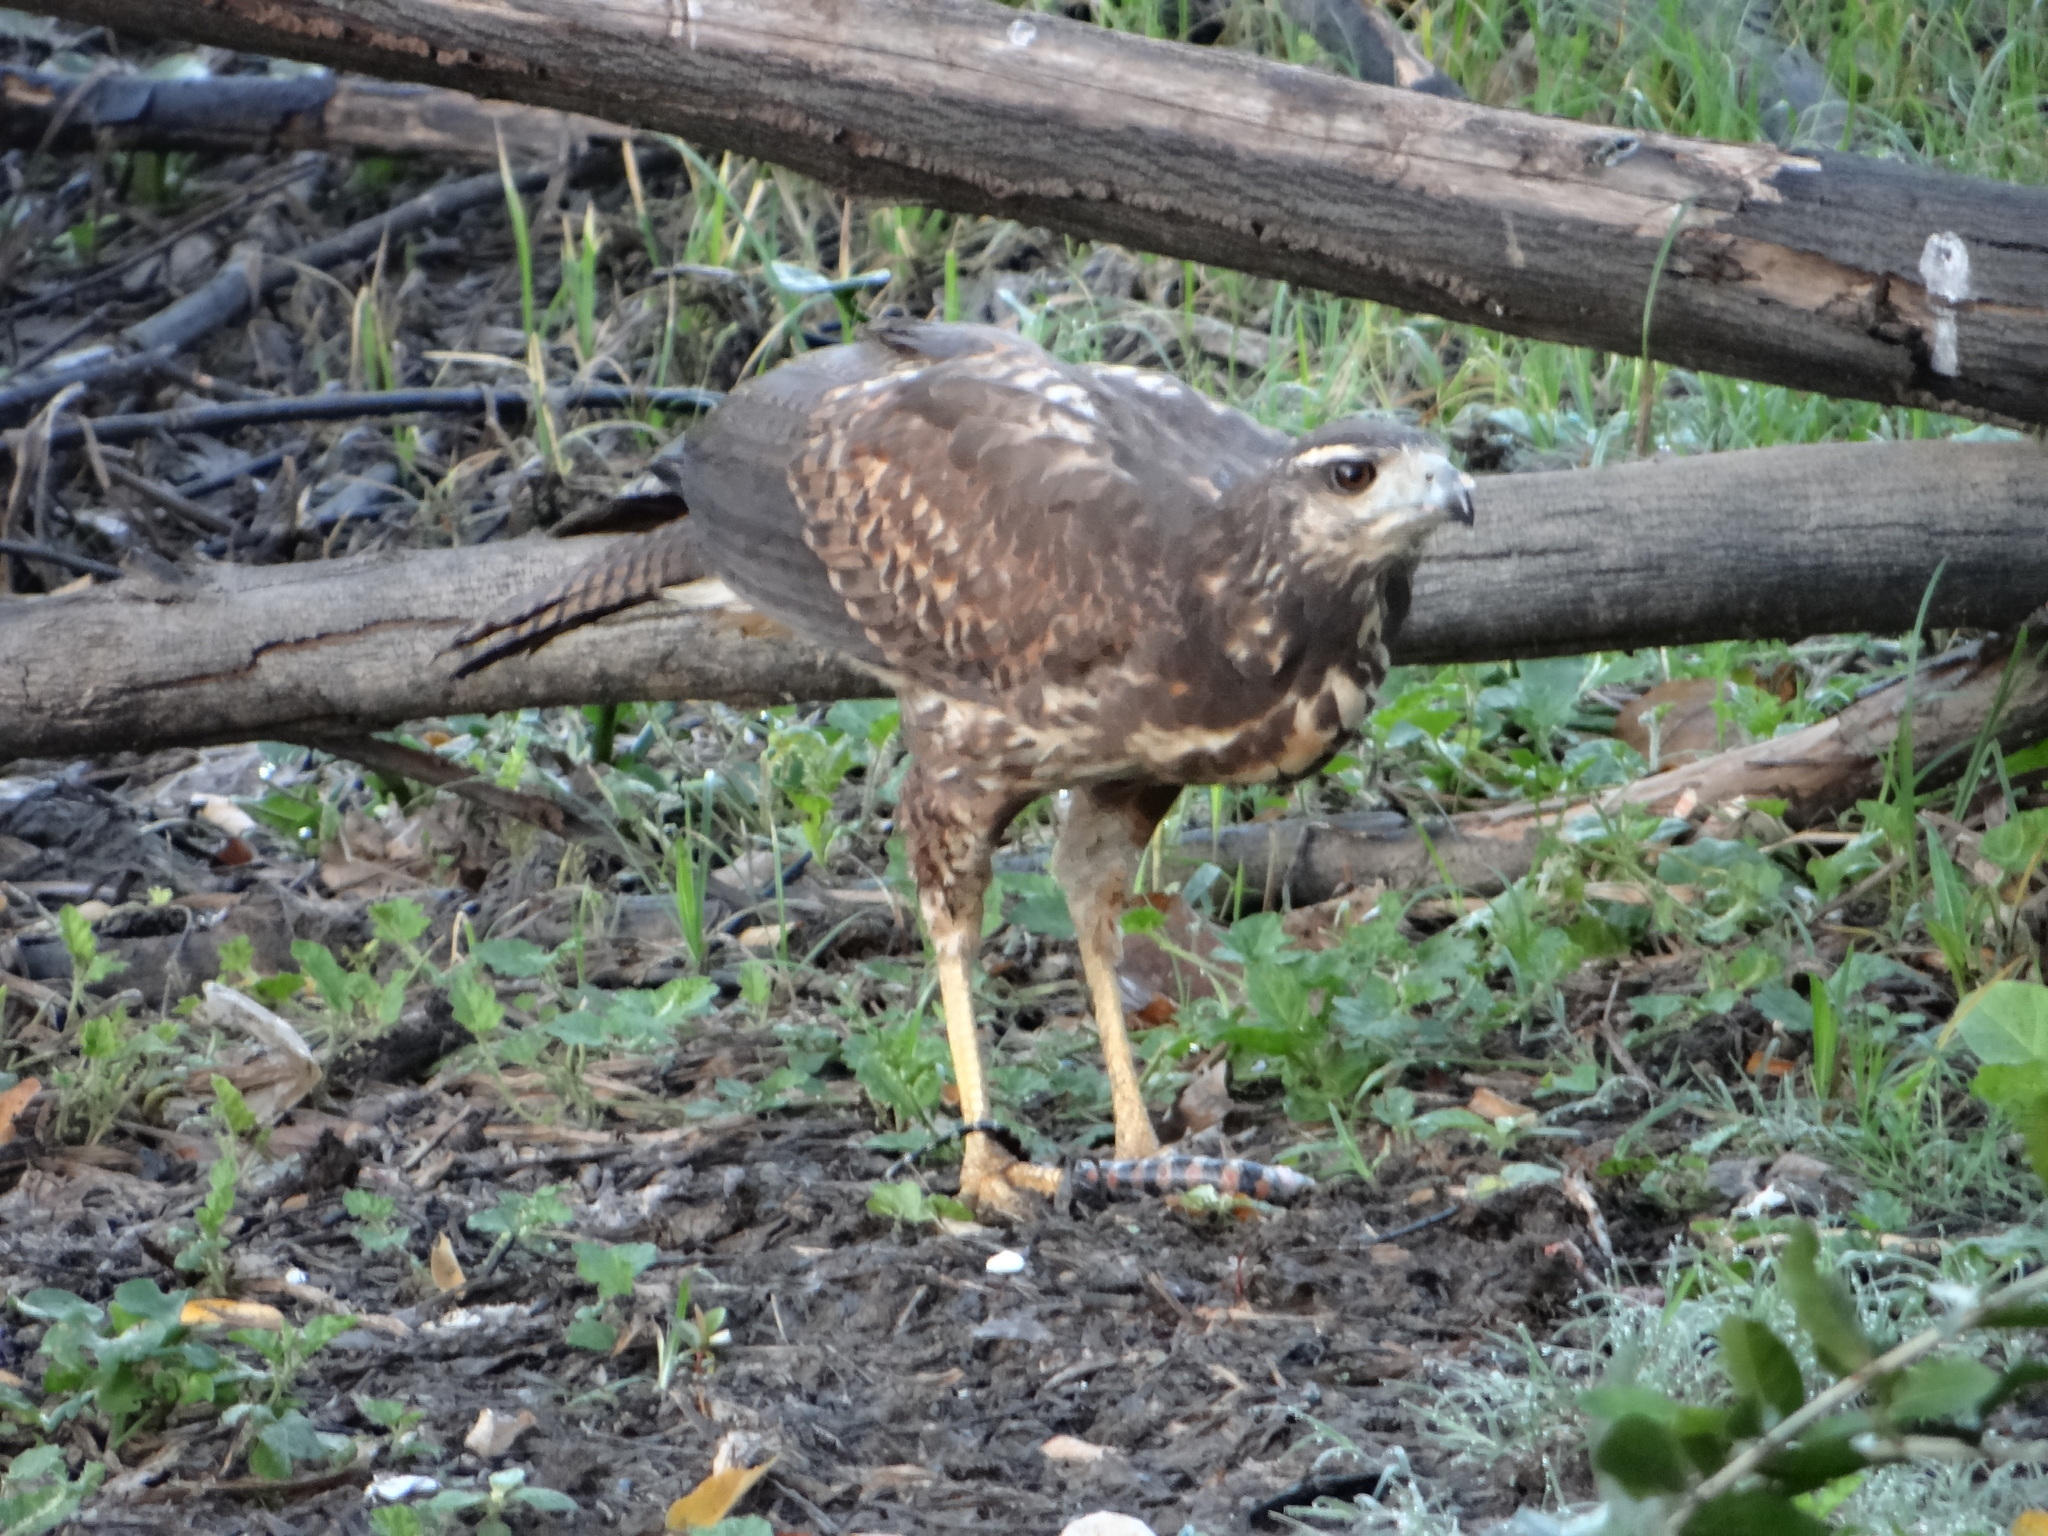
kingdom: Animalia
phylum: Chordata
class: Aves
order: Accipitriformes
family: Accipitridae
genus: Buteogallus
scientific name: Buteogallus urubitinga
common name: Great black hawk
